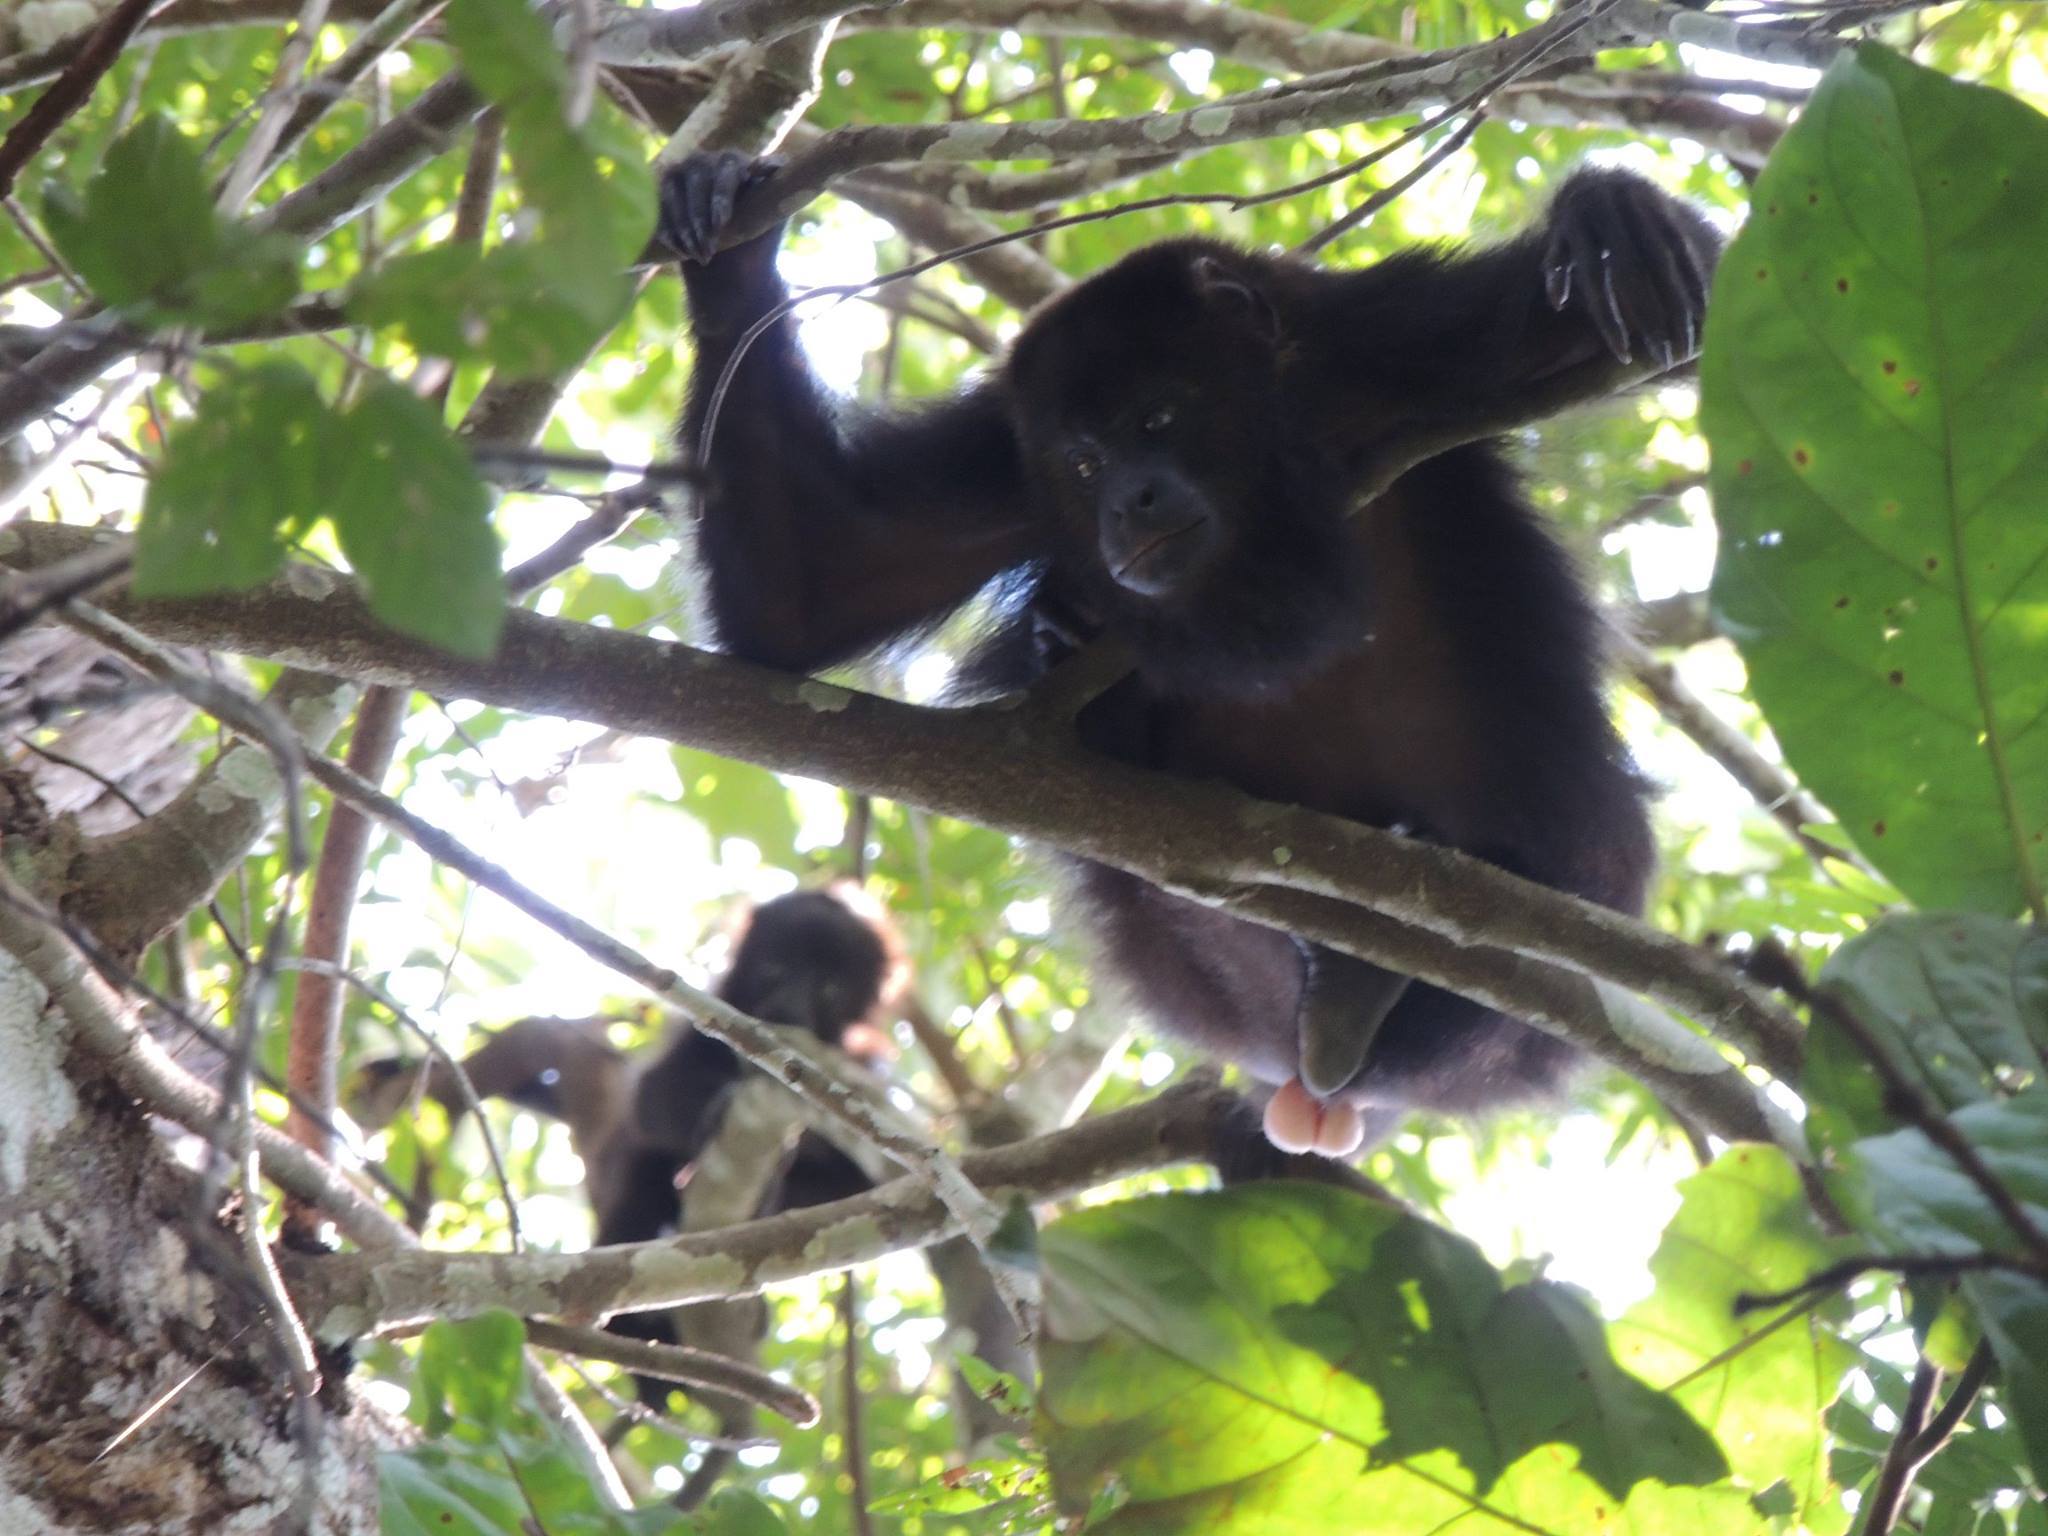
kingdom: Animalia
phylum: Chordata
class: Mammalia
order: Primates
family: Atelidae
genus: Alouatta
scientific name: Alouatta pigra
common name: Guatemalan black howler
